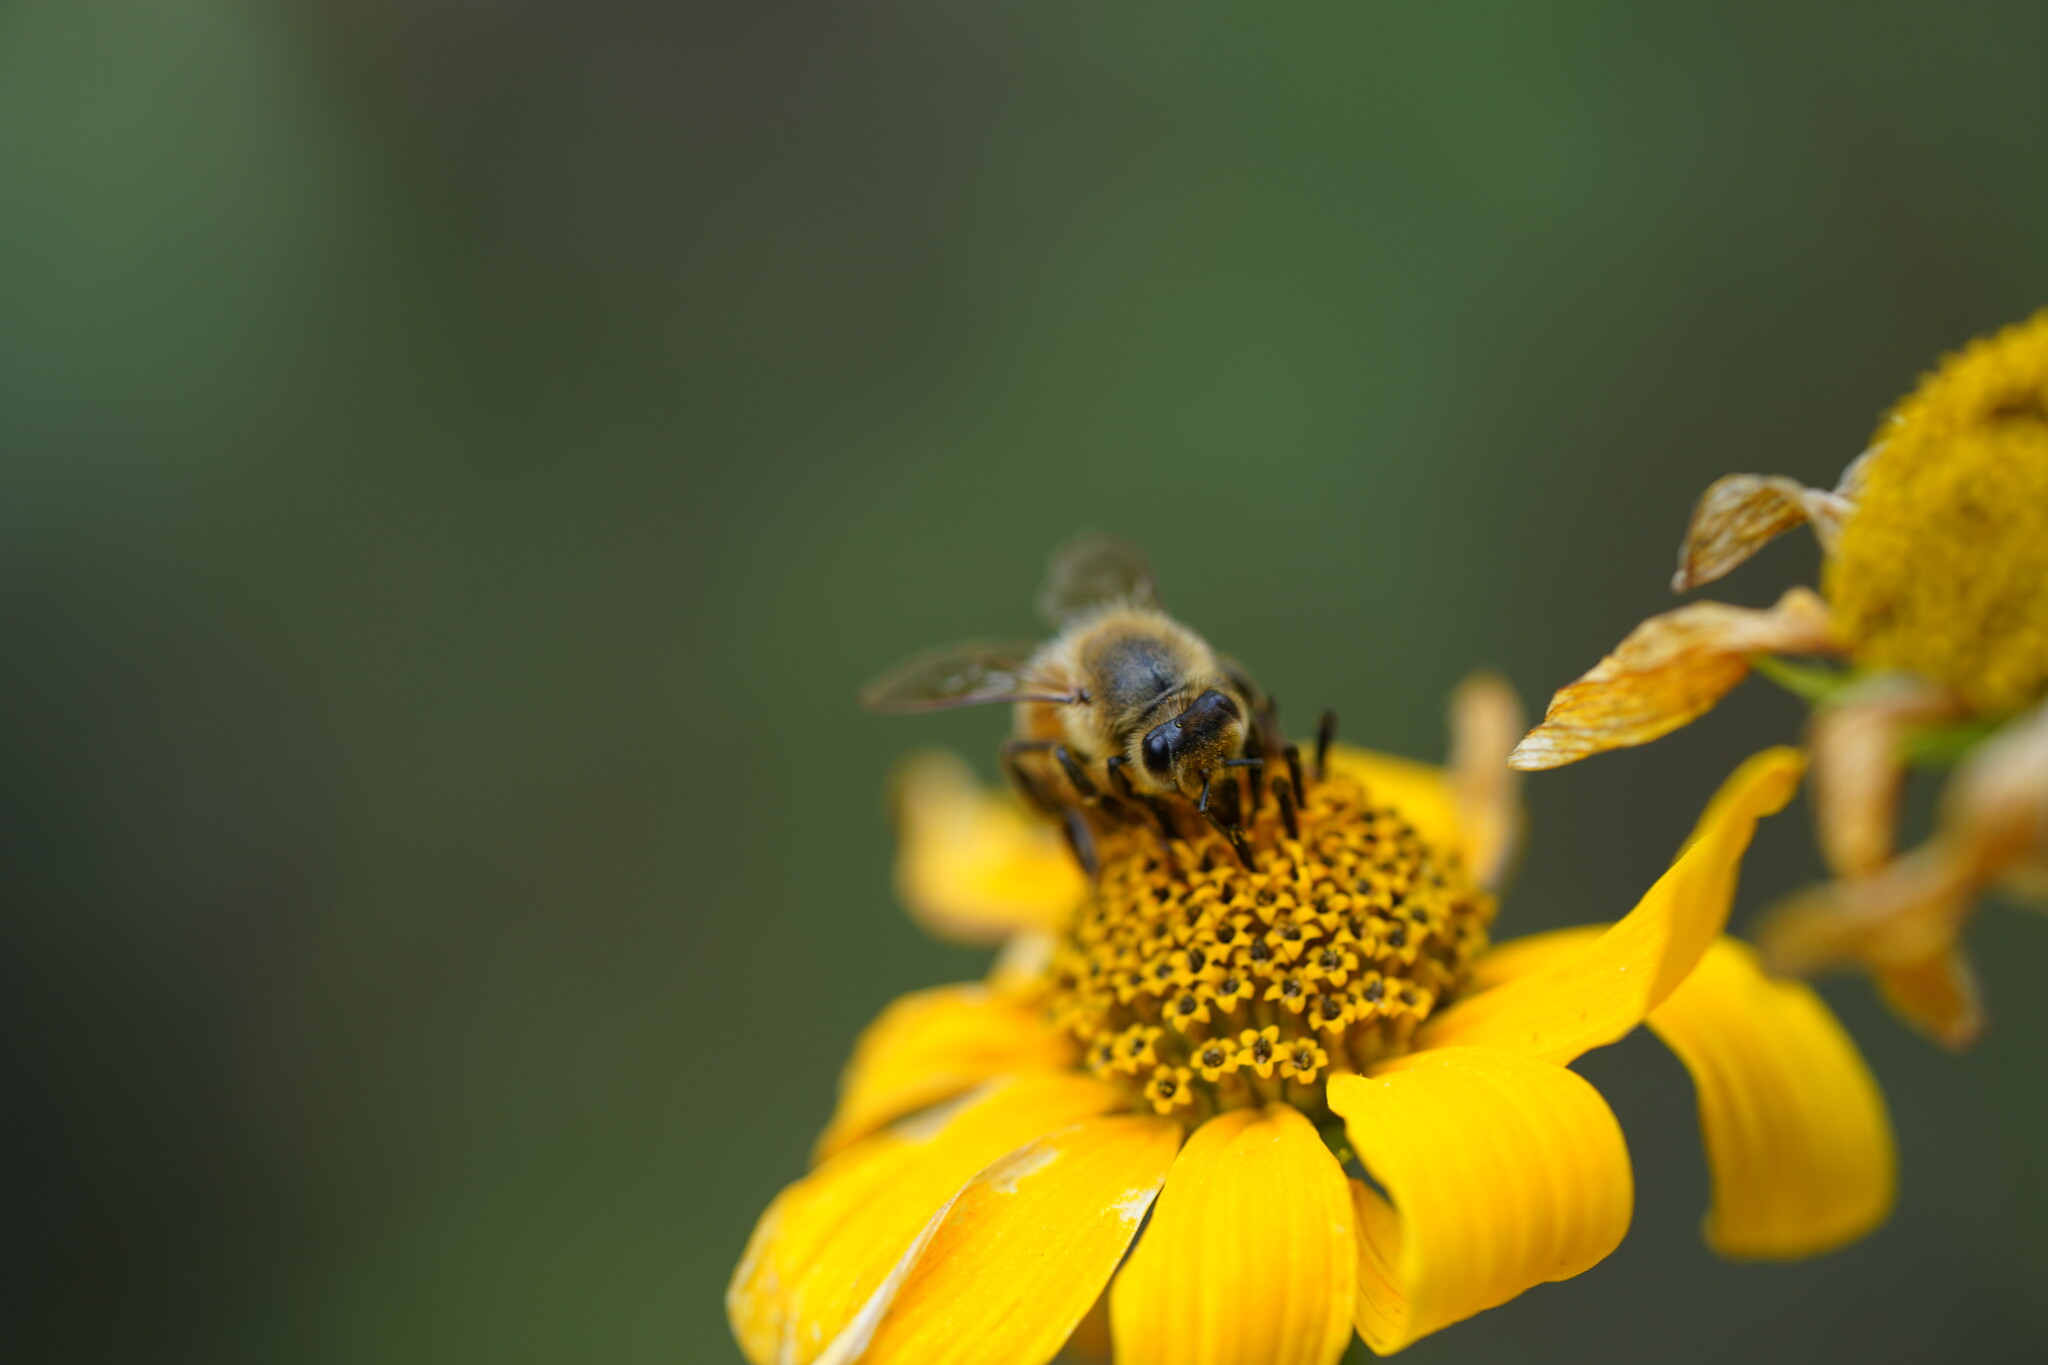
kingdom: Animalia
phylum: Arthropoda
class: Insecta
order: Hymenoptera
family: Apidae
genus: Apis
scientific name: Apis mellifera
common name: Honey bee
